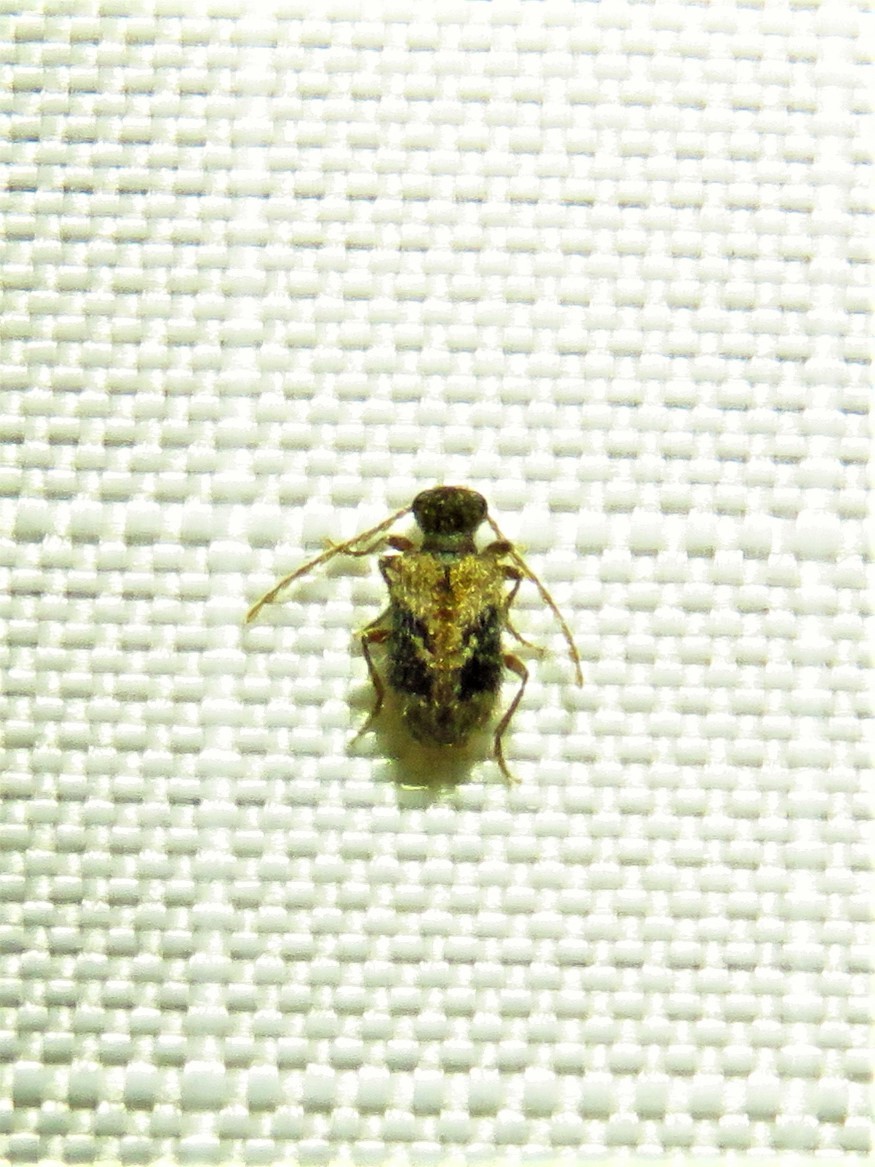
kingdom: Animalia
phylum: Arthropoda
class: Insecta
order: Coleoptera
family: Ptinidae
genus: Ptinus
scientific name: Ptinus texanus
